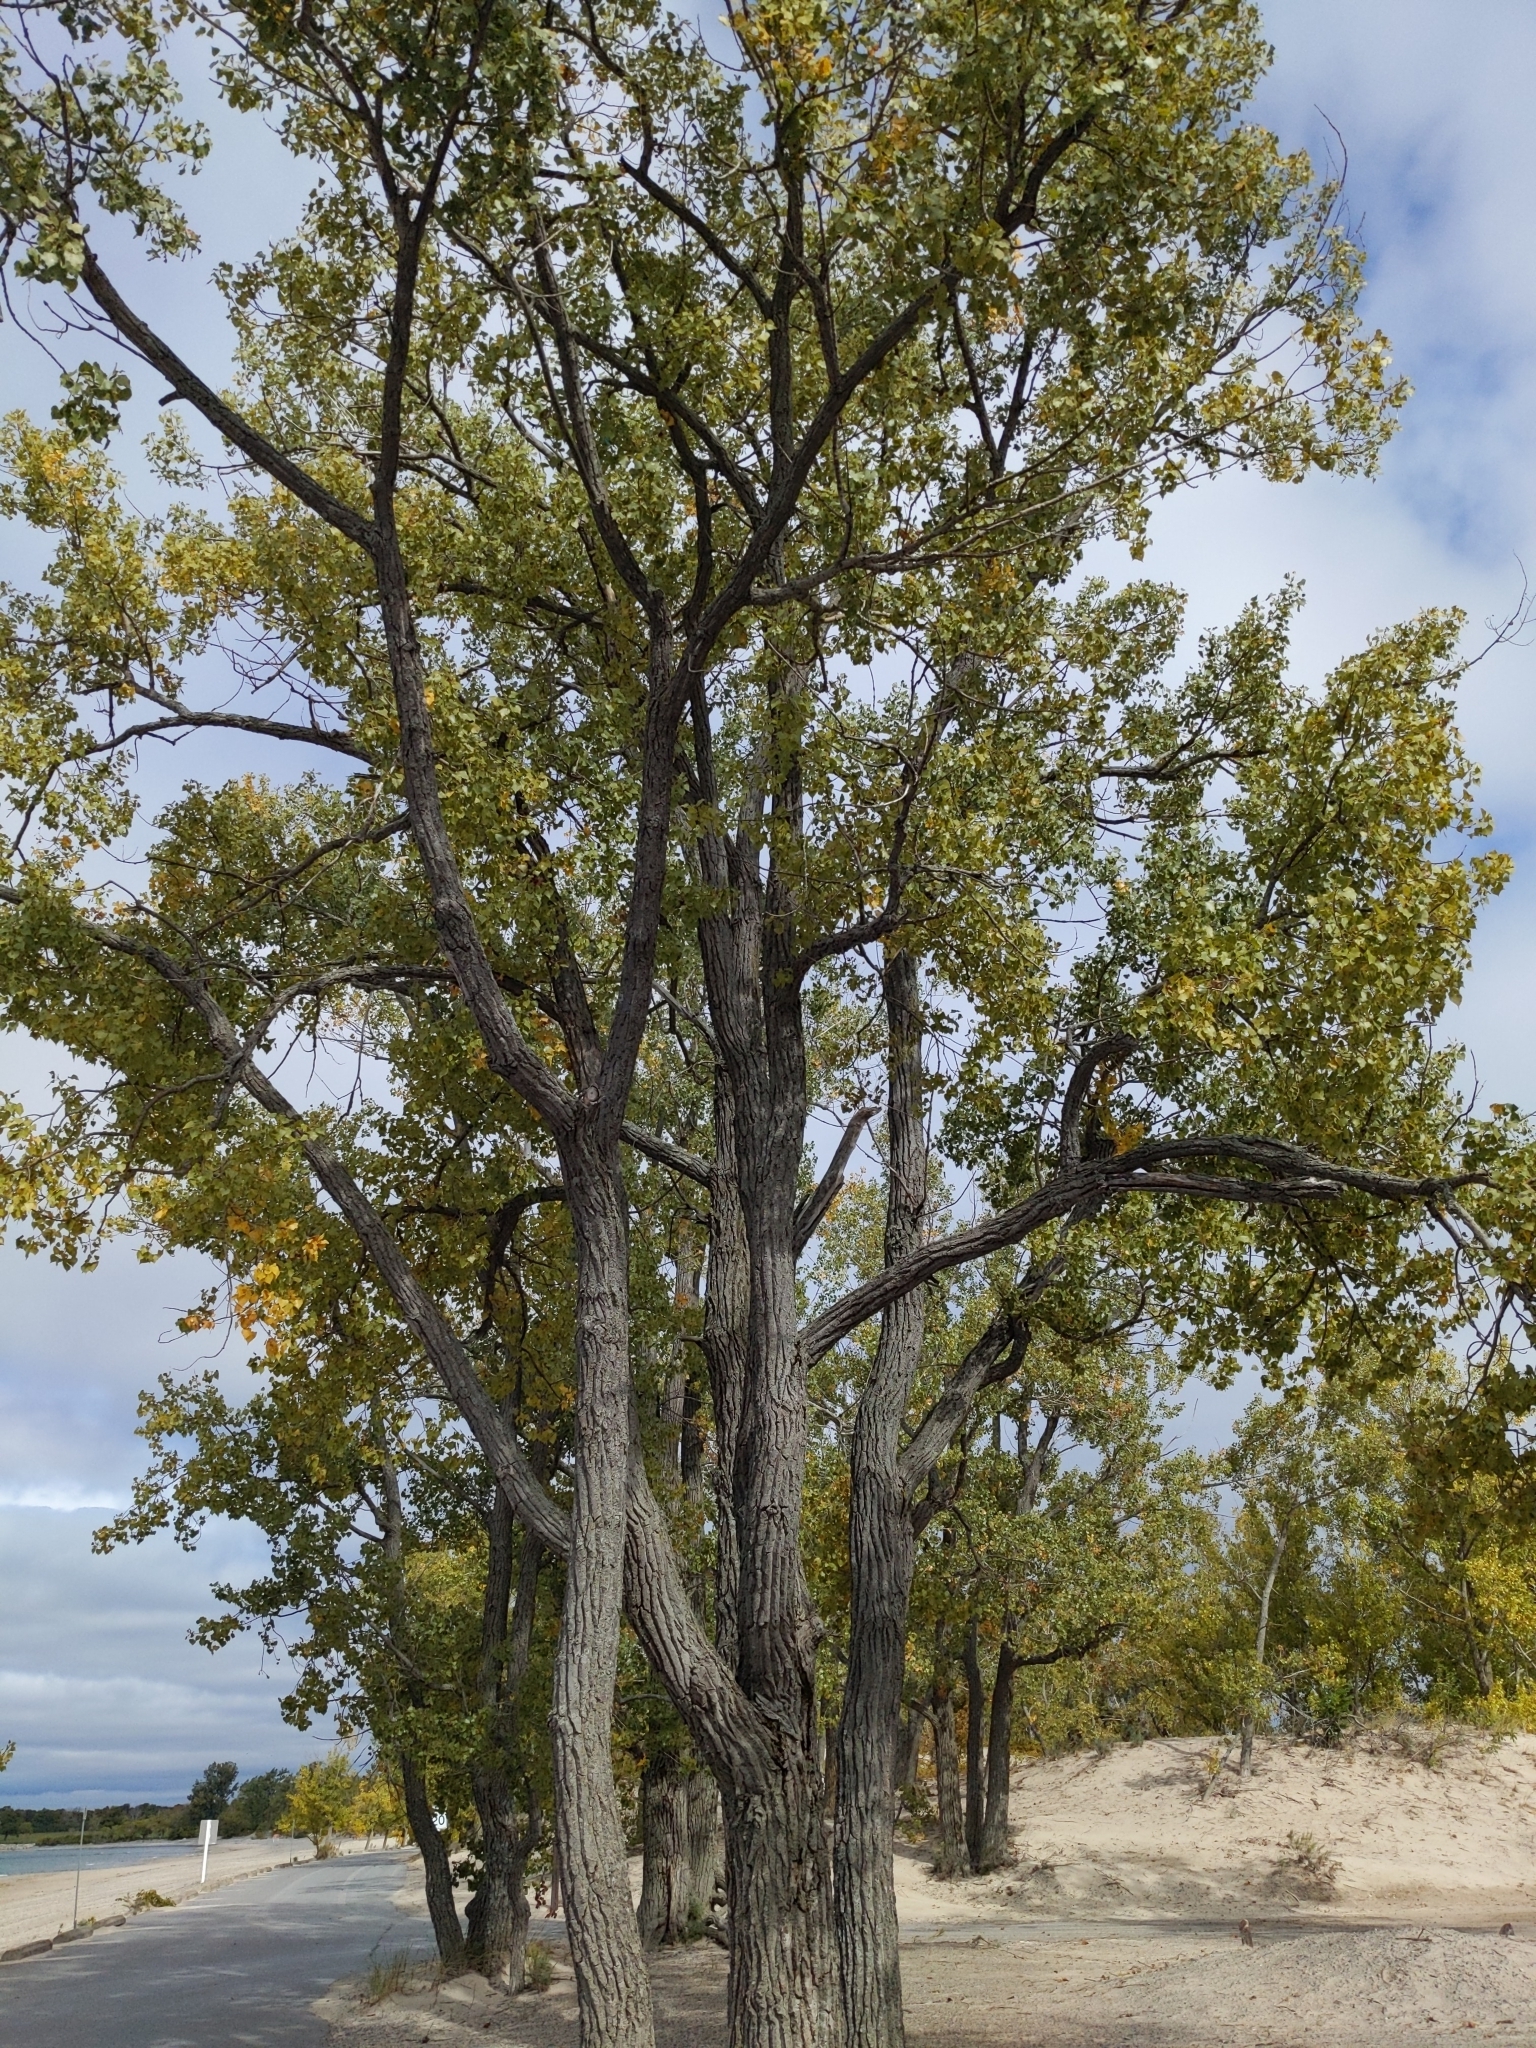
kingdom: Plantae
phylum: Tracheophyta
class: Magnoliopsida
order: Malpighiales
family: Salicaceae
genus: Populus
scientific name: Populus deltoides
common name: Eastern cottonwood
